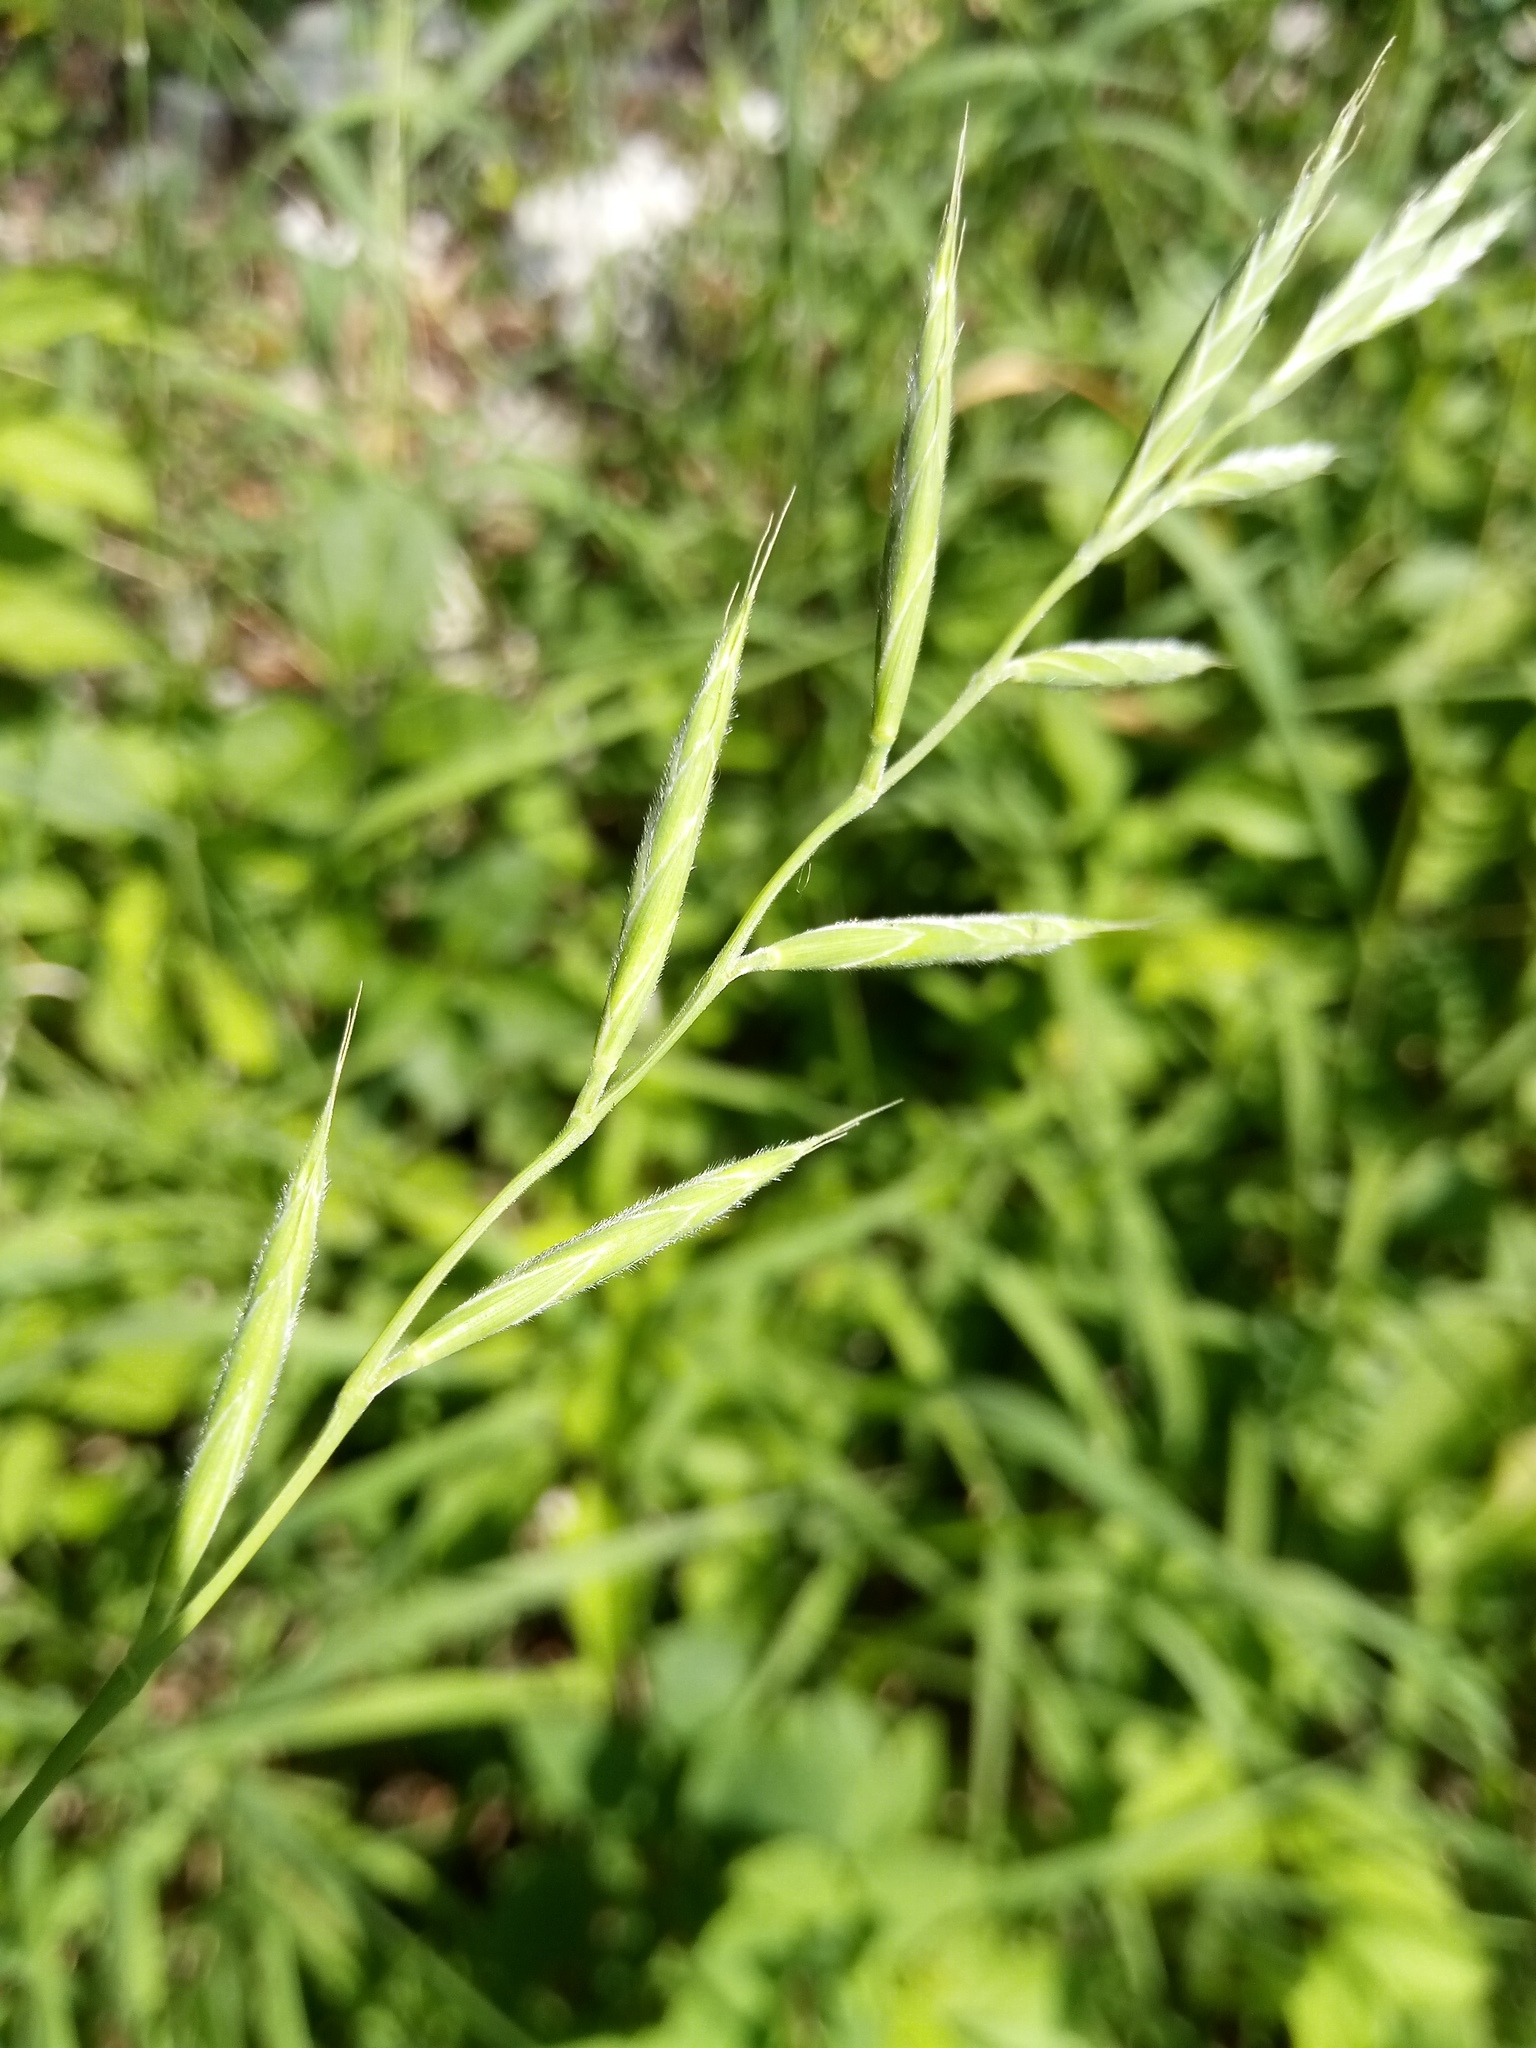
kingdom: Plantae
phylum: Tracheophyta
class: Liliopsida
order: Poales
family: Poaceae
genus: Brachypodium
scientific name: Brachypodium pinnatum
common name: Tor grass
